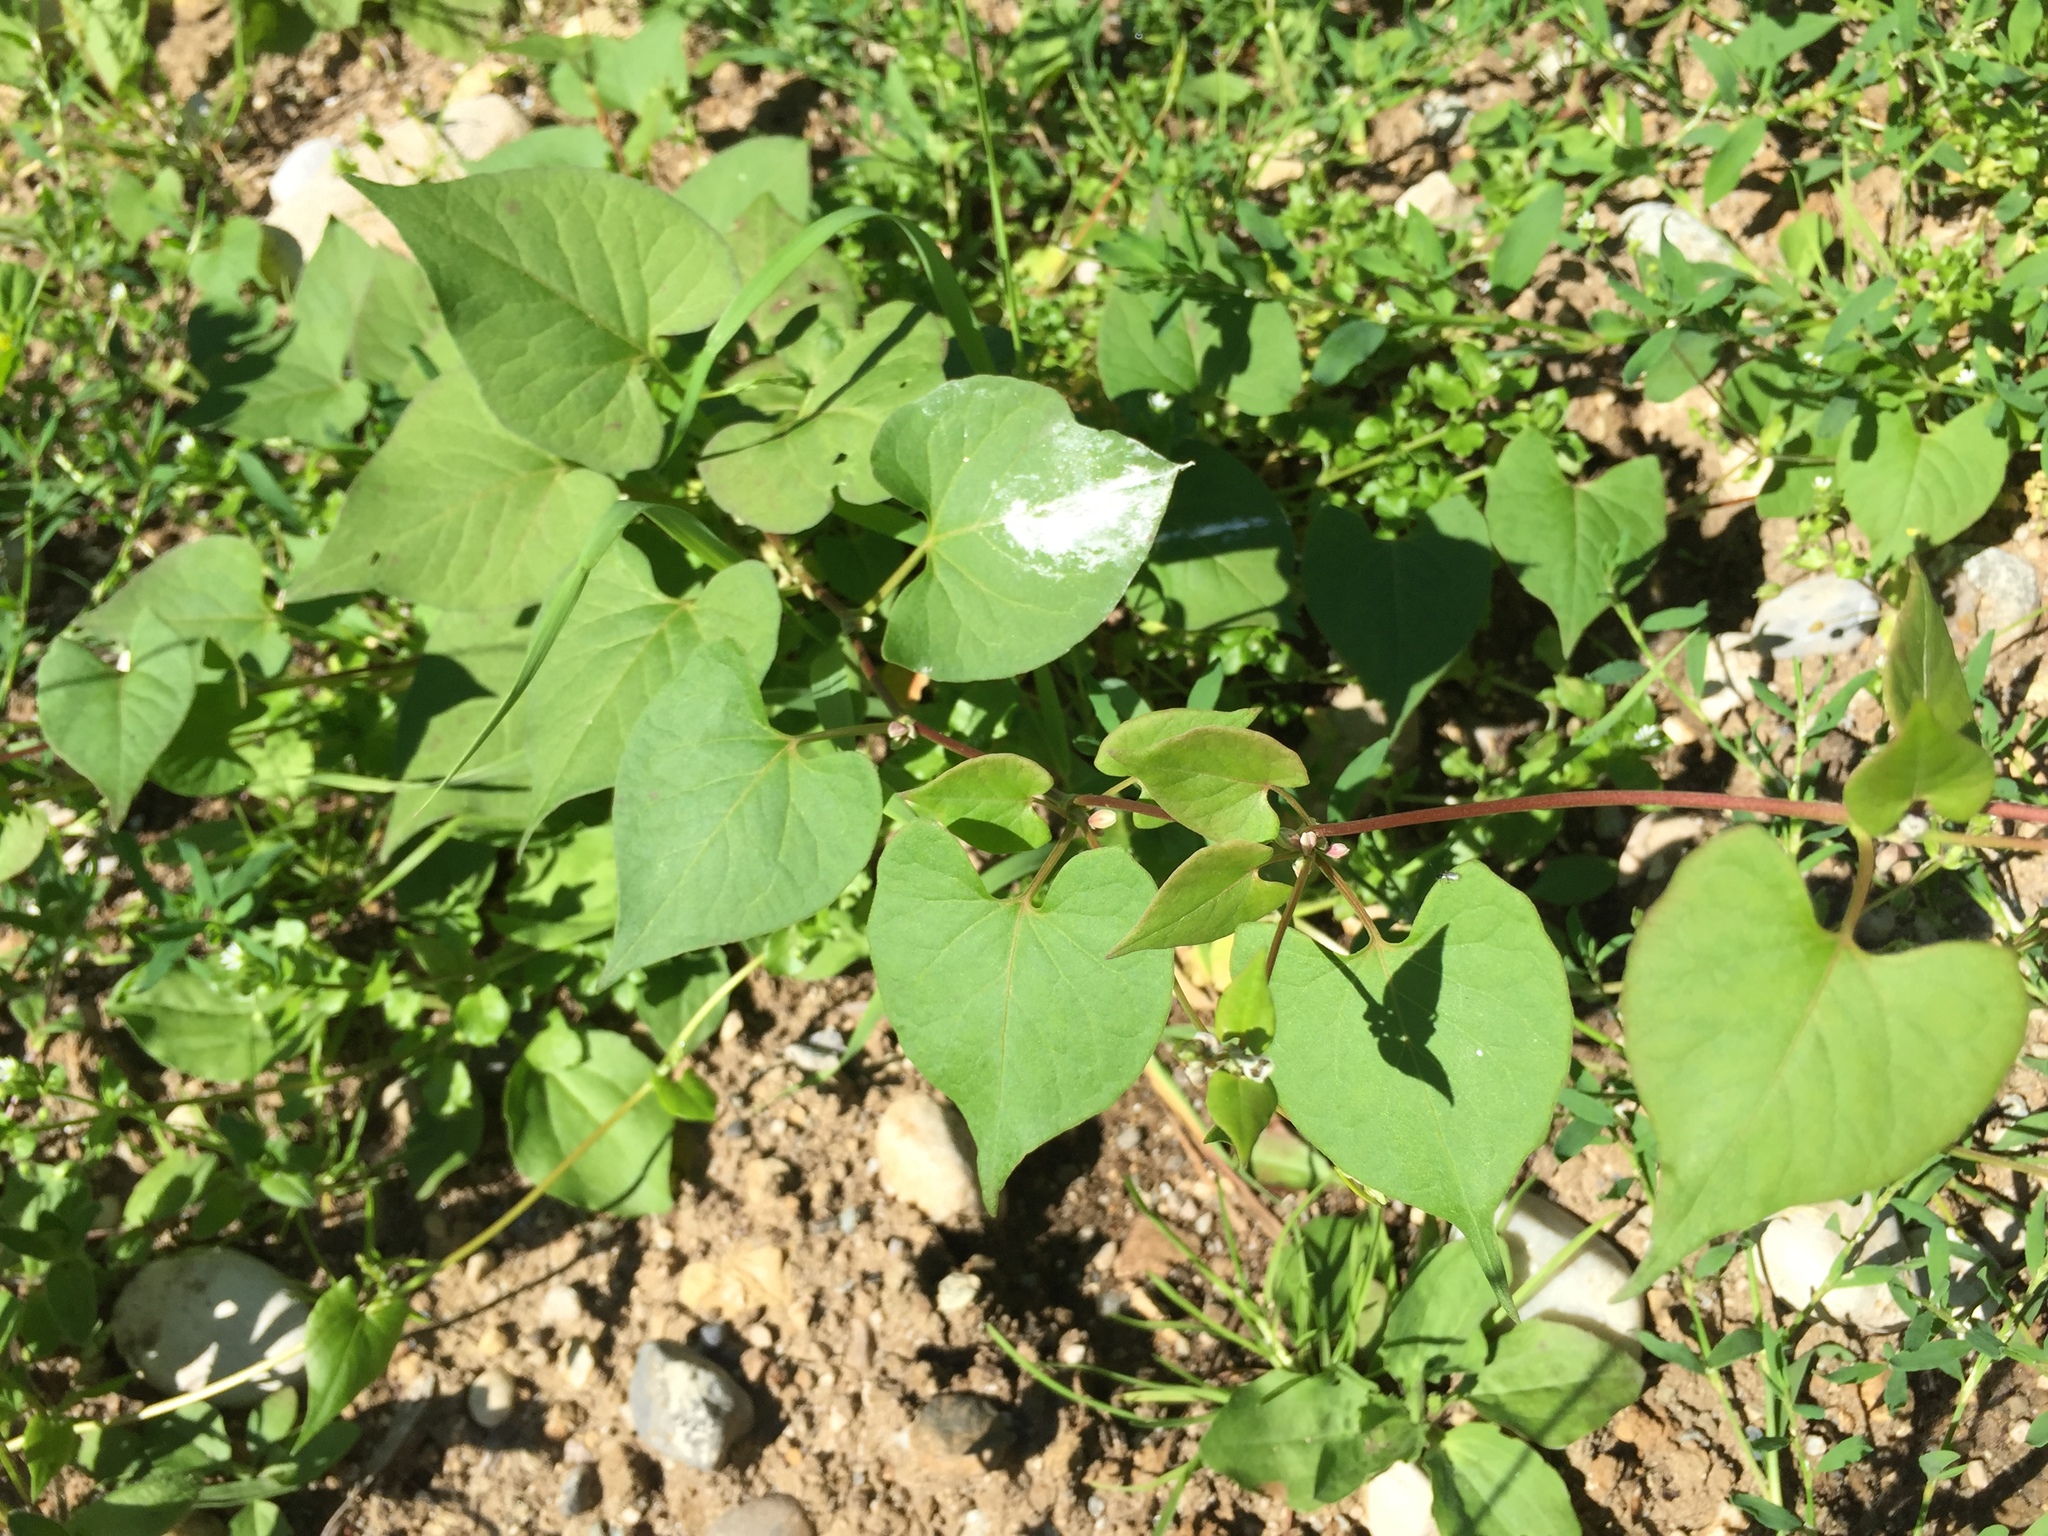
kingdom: Plantae
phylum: Tracheophyta
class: Magnoliopsida
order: Caryophyllales
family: Polygonaceae
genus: Fallopia
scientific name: Fallopia convolvulus
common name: Black bindweed
